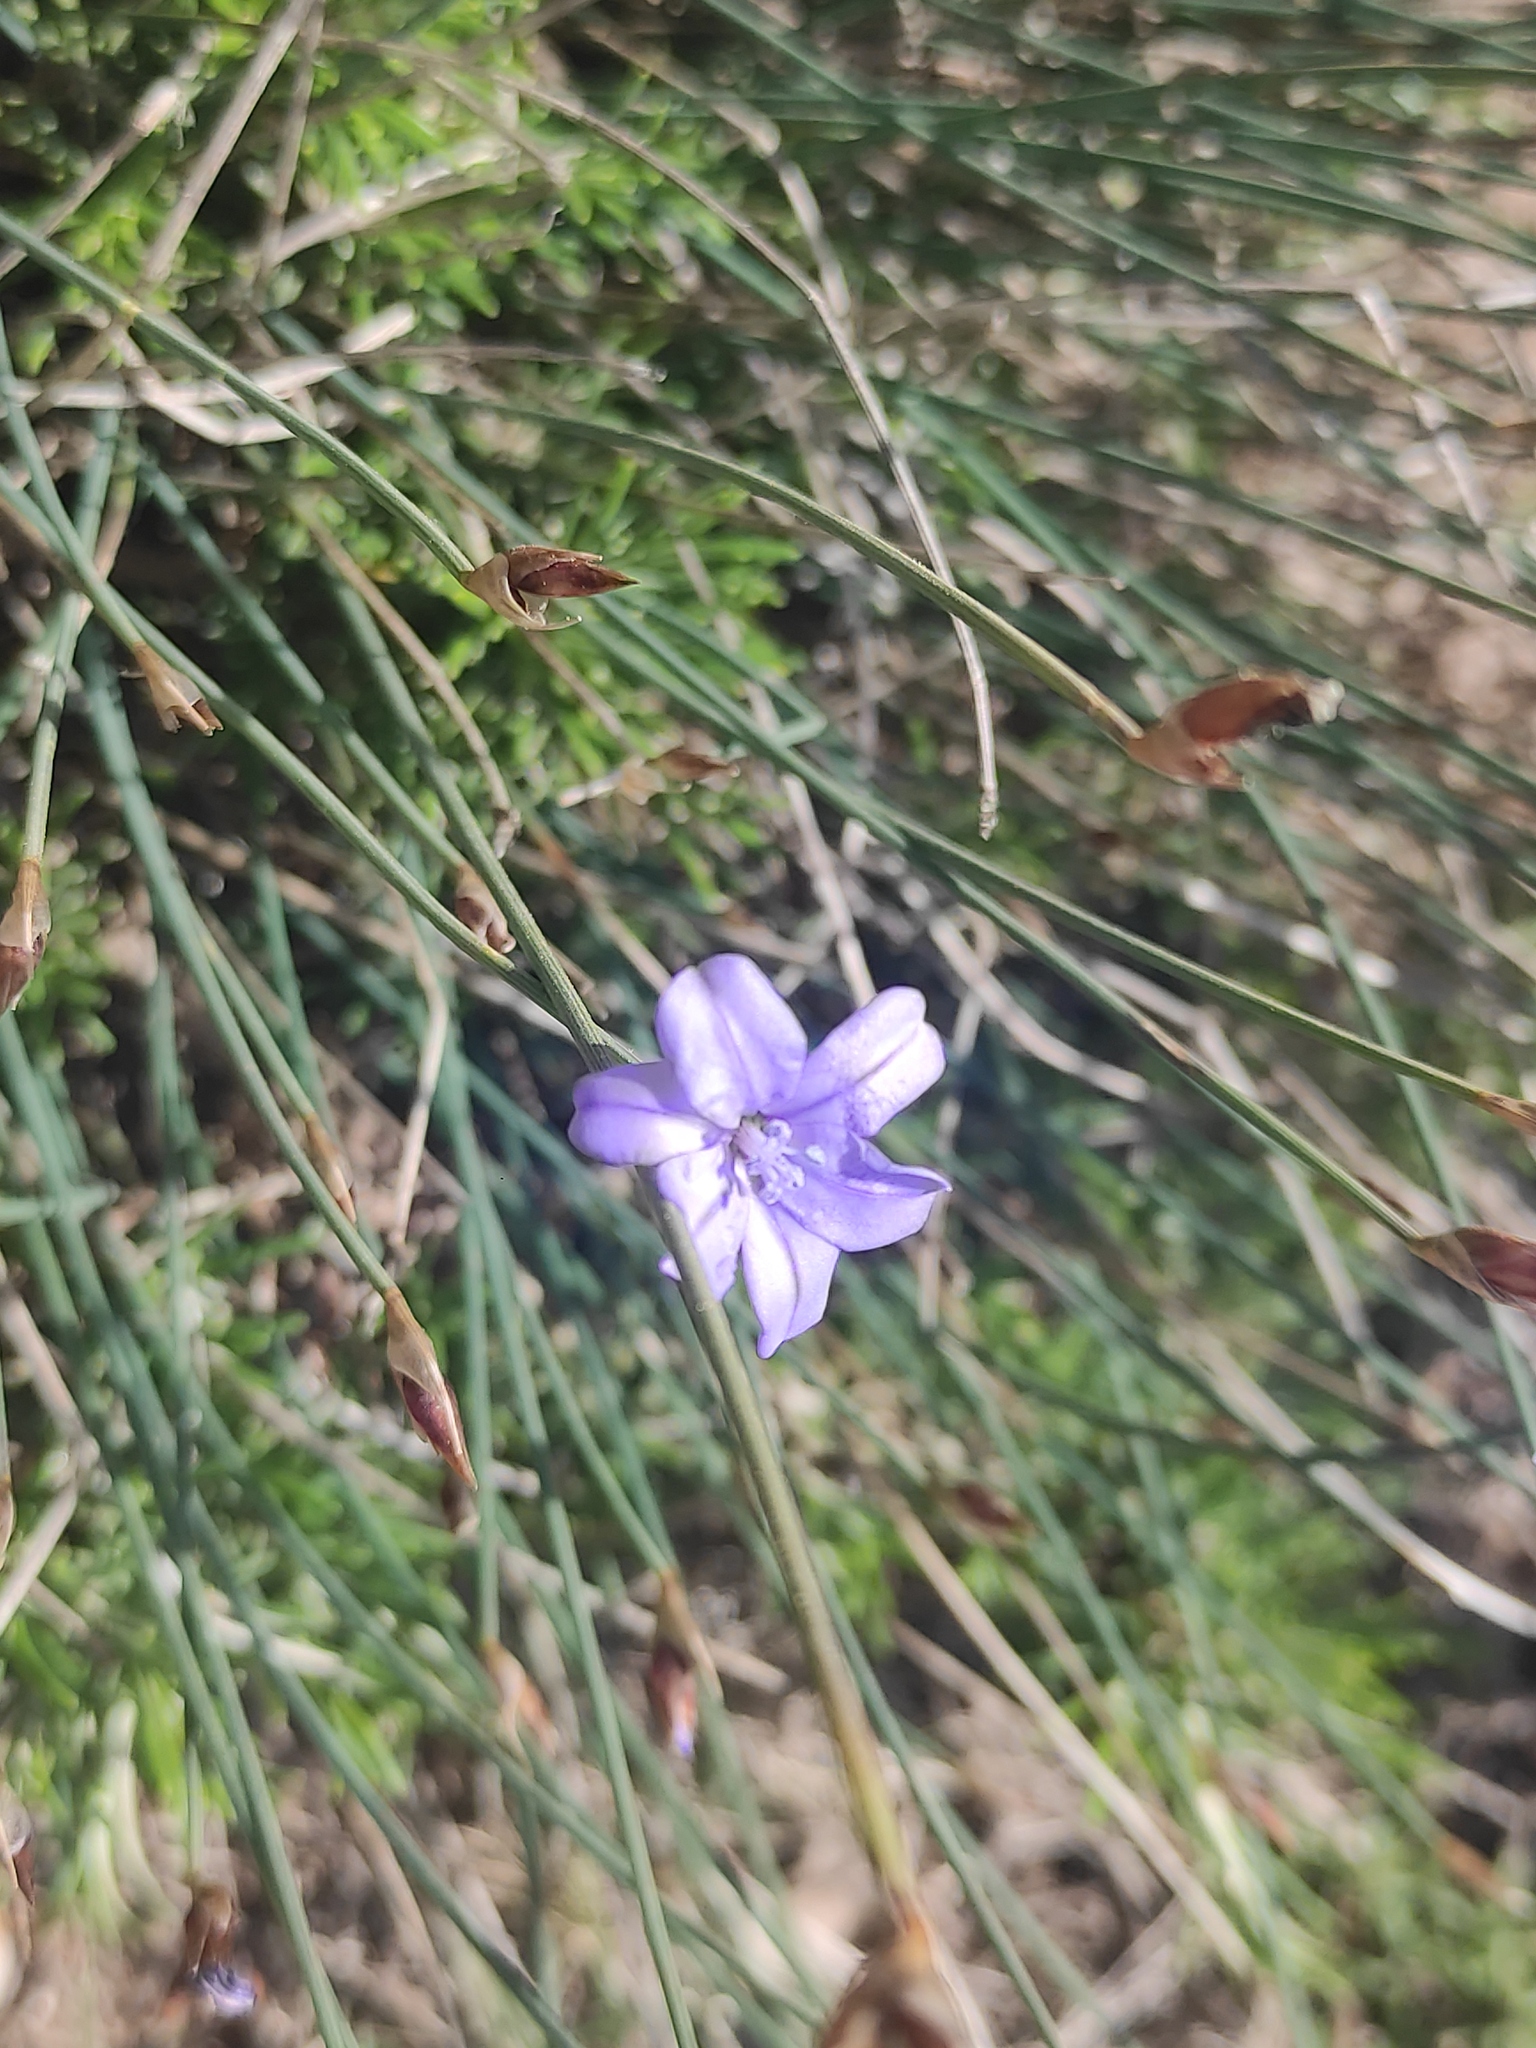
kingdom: Plantae
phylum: Tracheophyta
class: Liliopsida
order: Asparagales
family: Asparagaceae
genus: Aphyllanthes
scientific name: Aphyllanthes monspeliensis
